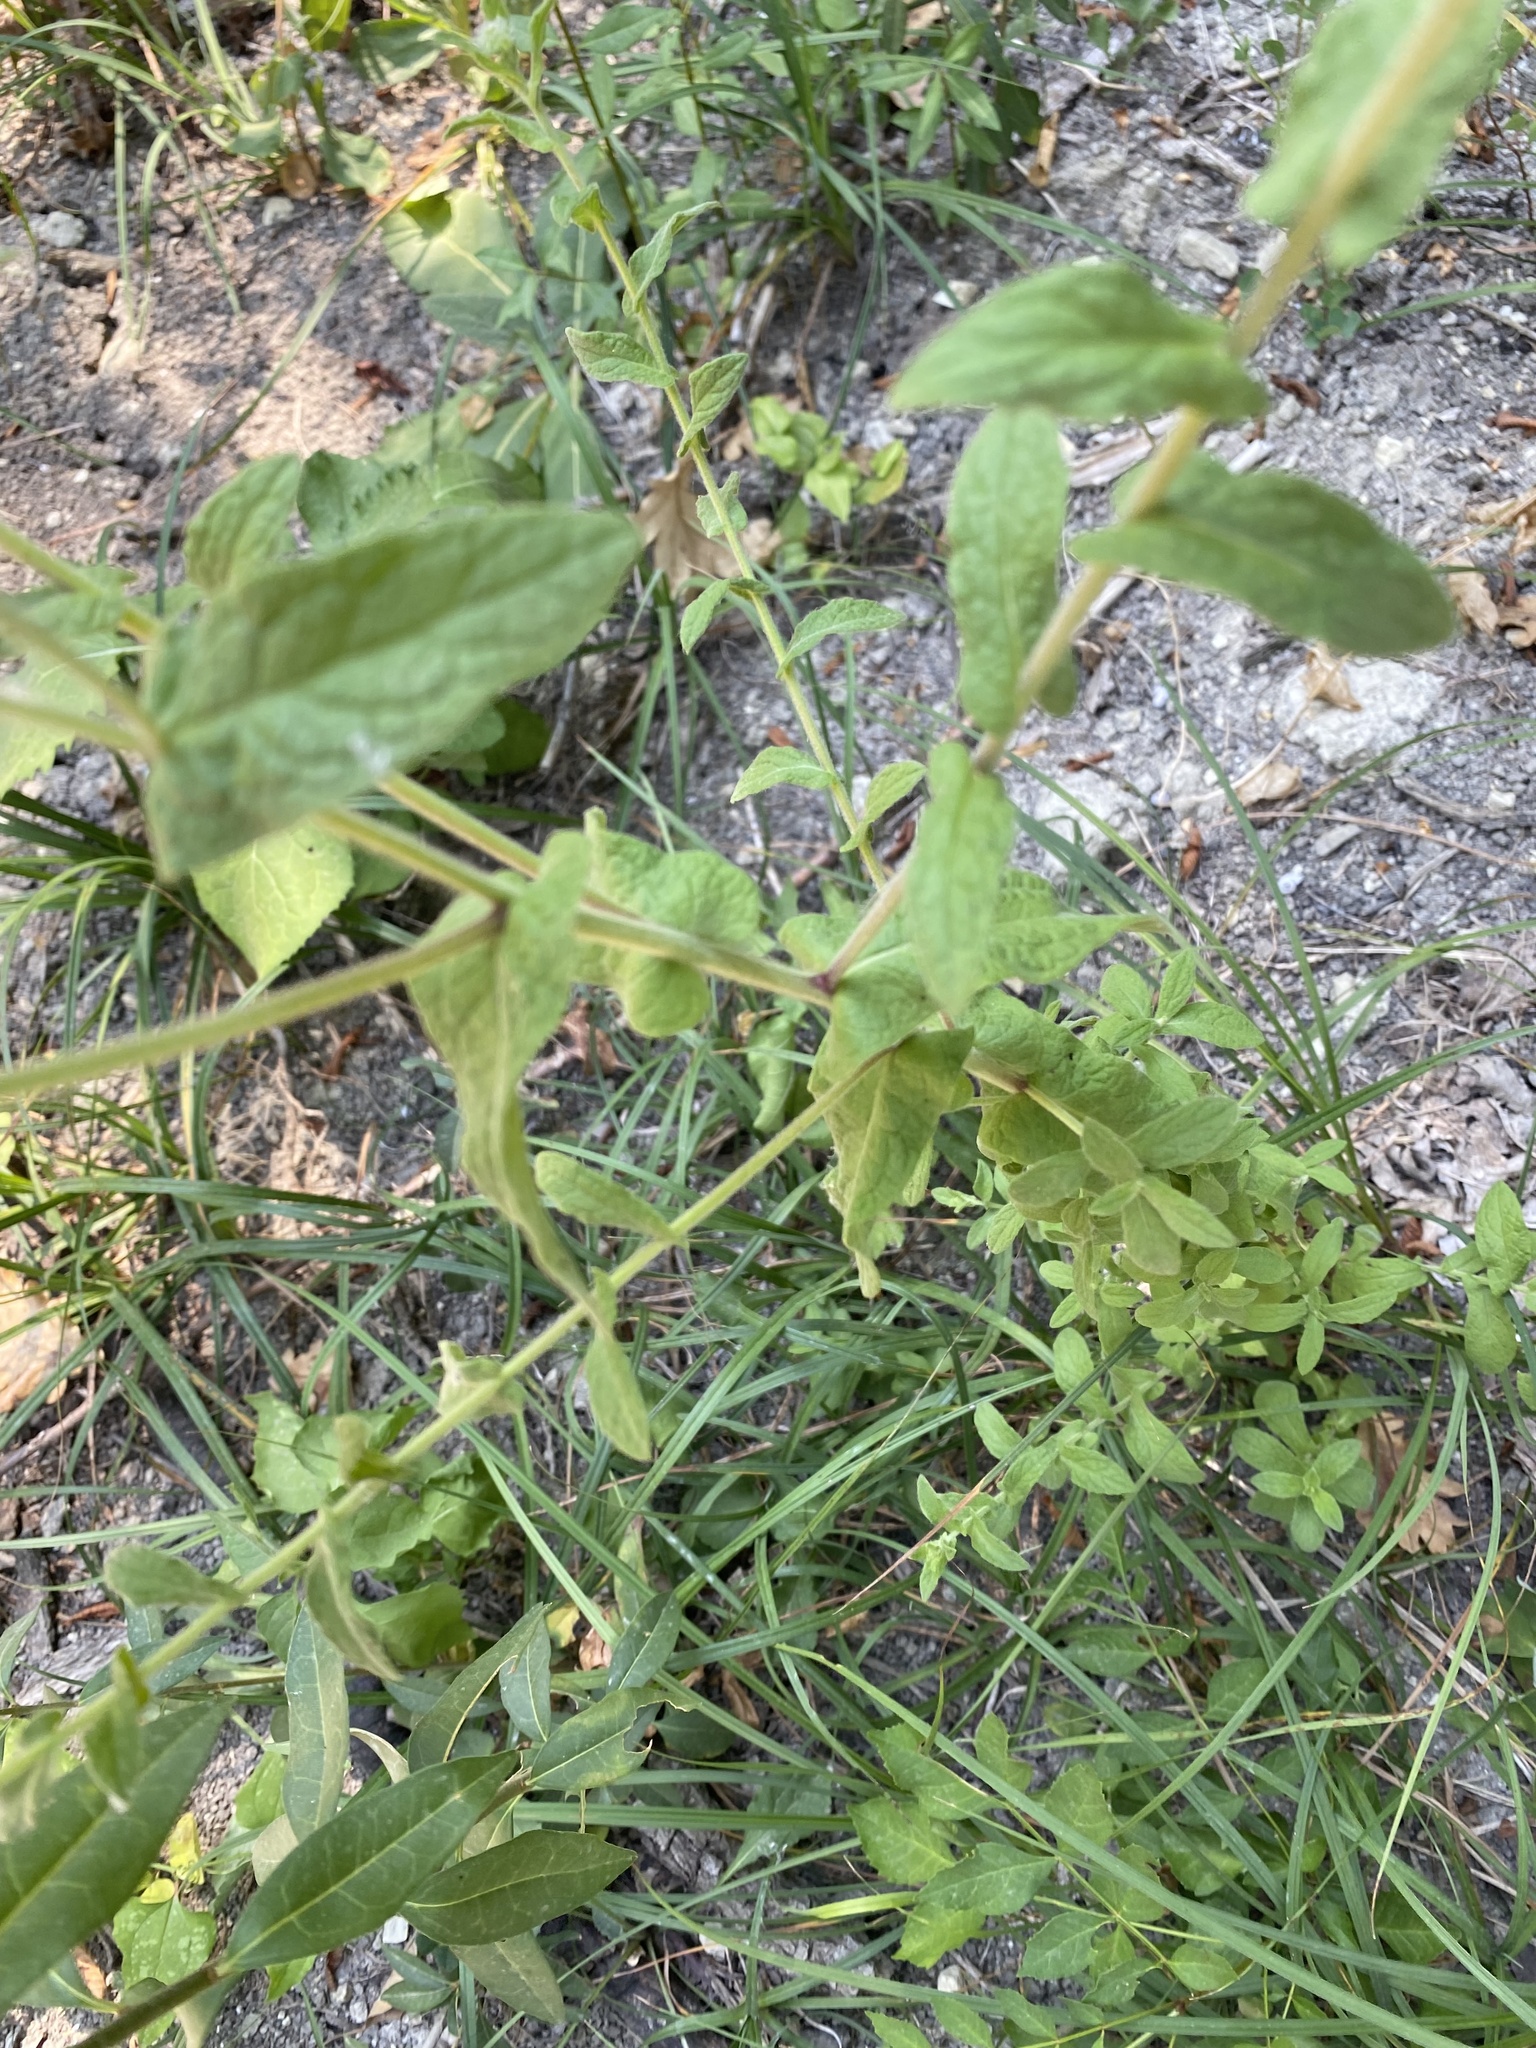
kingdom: Plantae
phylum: Tracheophyta
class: Magnoliopsida
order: Asterales
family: Asteraceae
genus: Pulicaria
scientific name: Pulicaria dysenterica
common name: Common fleabane
